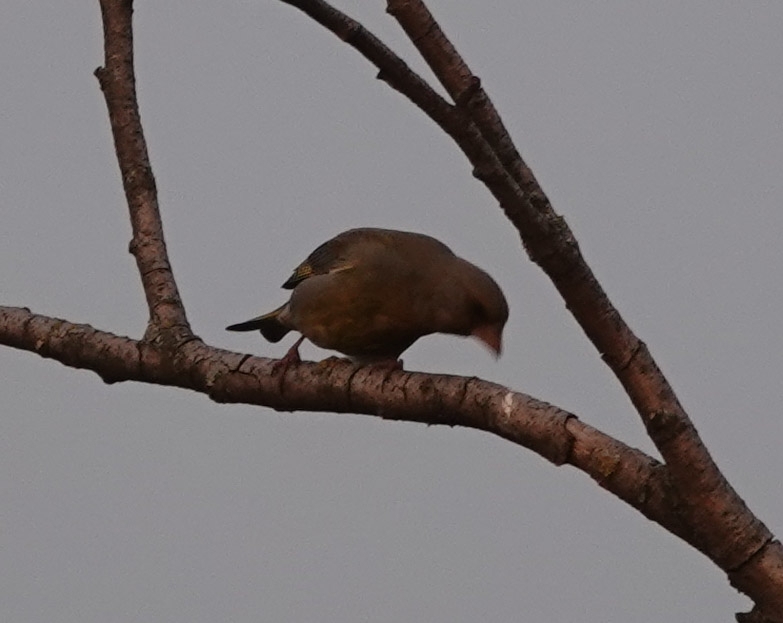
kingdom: Plantae
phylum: Tracheophyta
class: Liliopsida
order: Poales
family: Poaceae
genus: Chloris
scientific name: Chloris chloris
